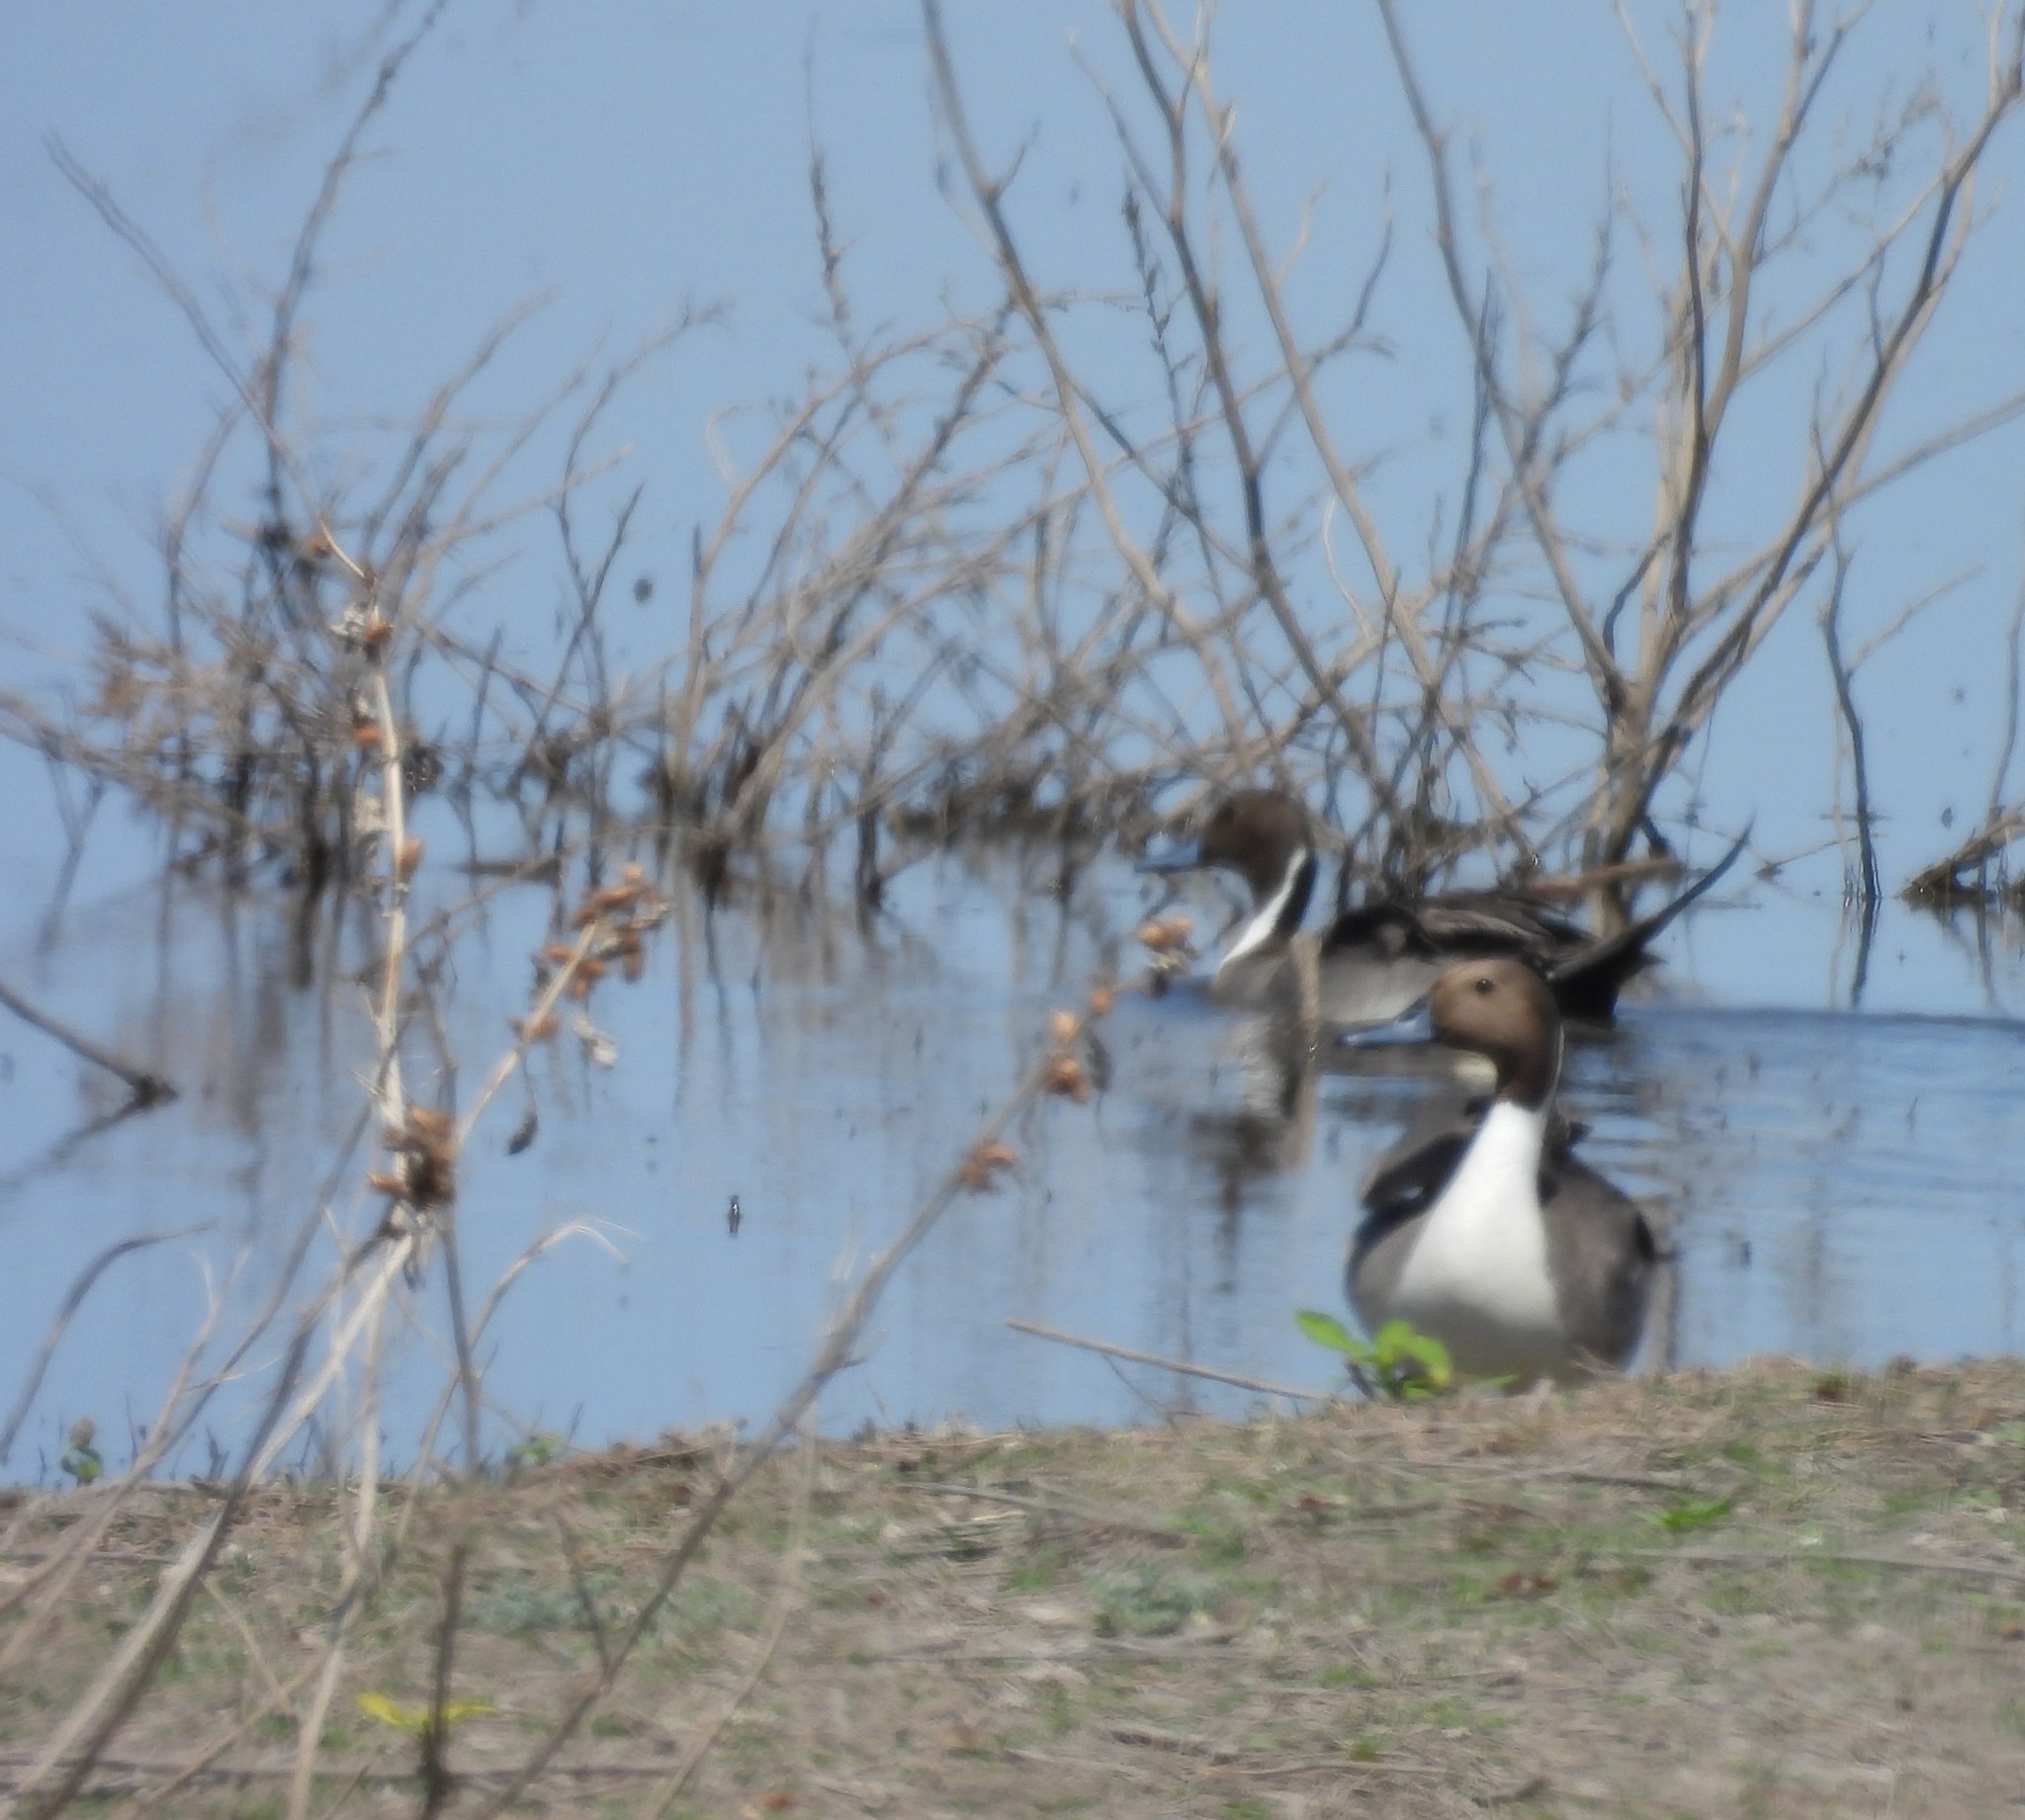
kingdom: Animalia
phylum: Chordata
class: Aves
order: Anseriformes
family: Anatidae
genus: Anas
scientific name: Anas acuta
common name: Northern pintail
